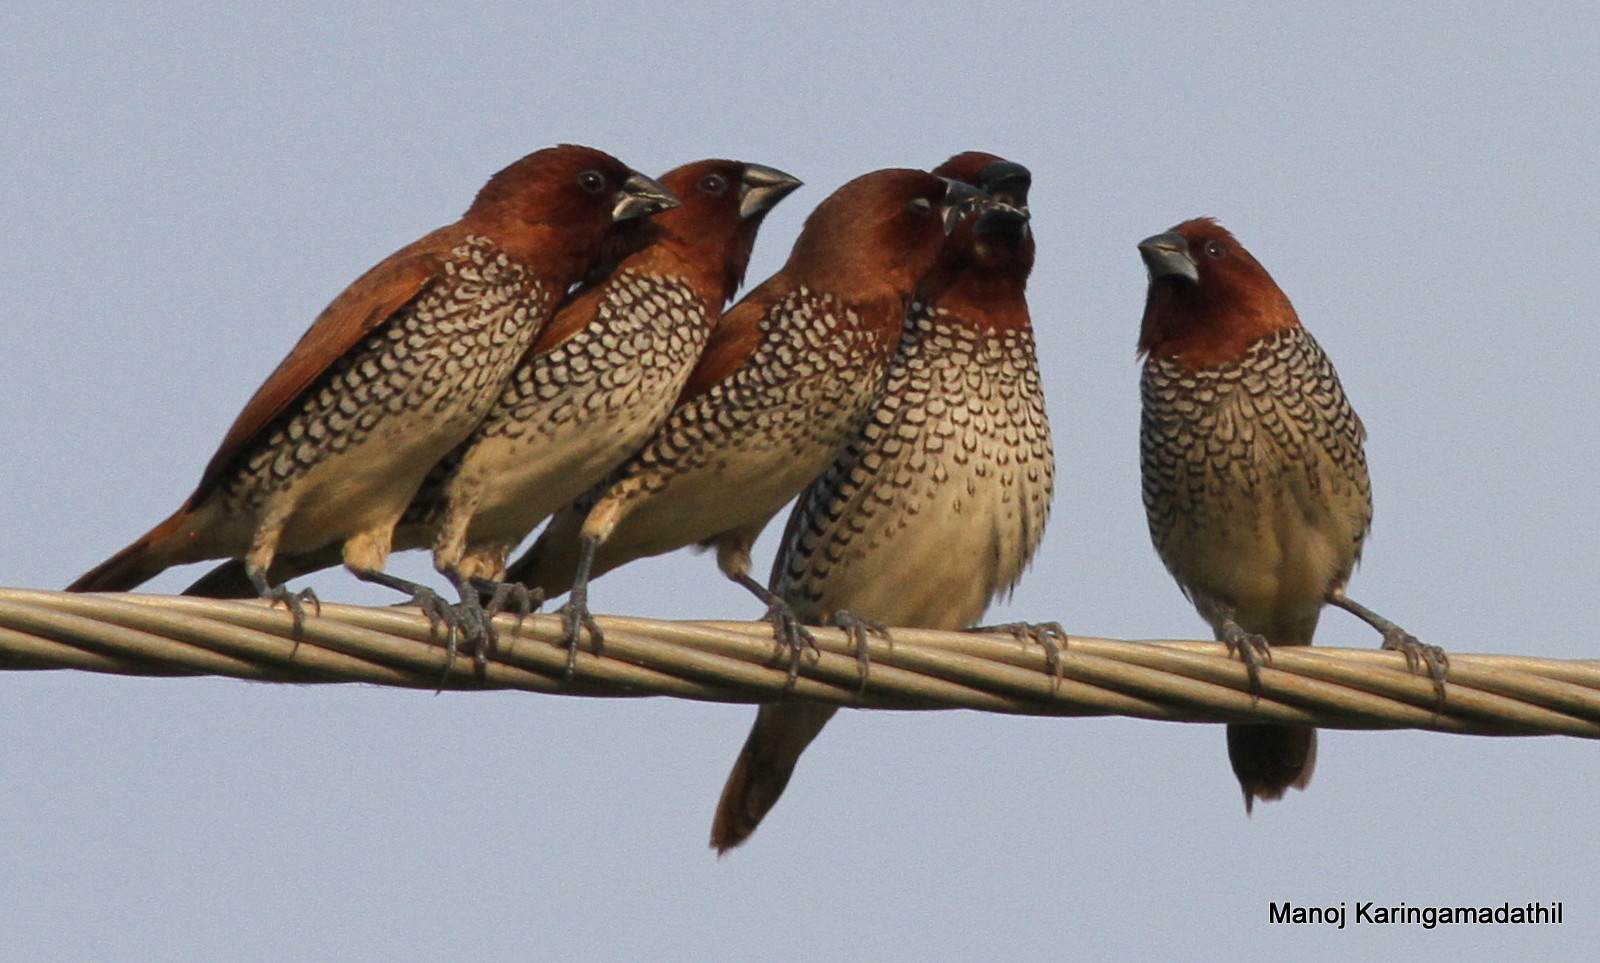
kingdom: Animalia
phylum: Chordata
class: Aves
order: Passeriformes
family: Estrildidae
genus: Lonchura
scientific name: Lonchura punctulata
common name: Scaly-breasted munia
